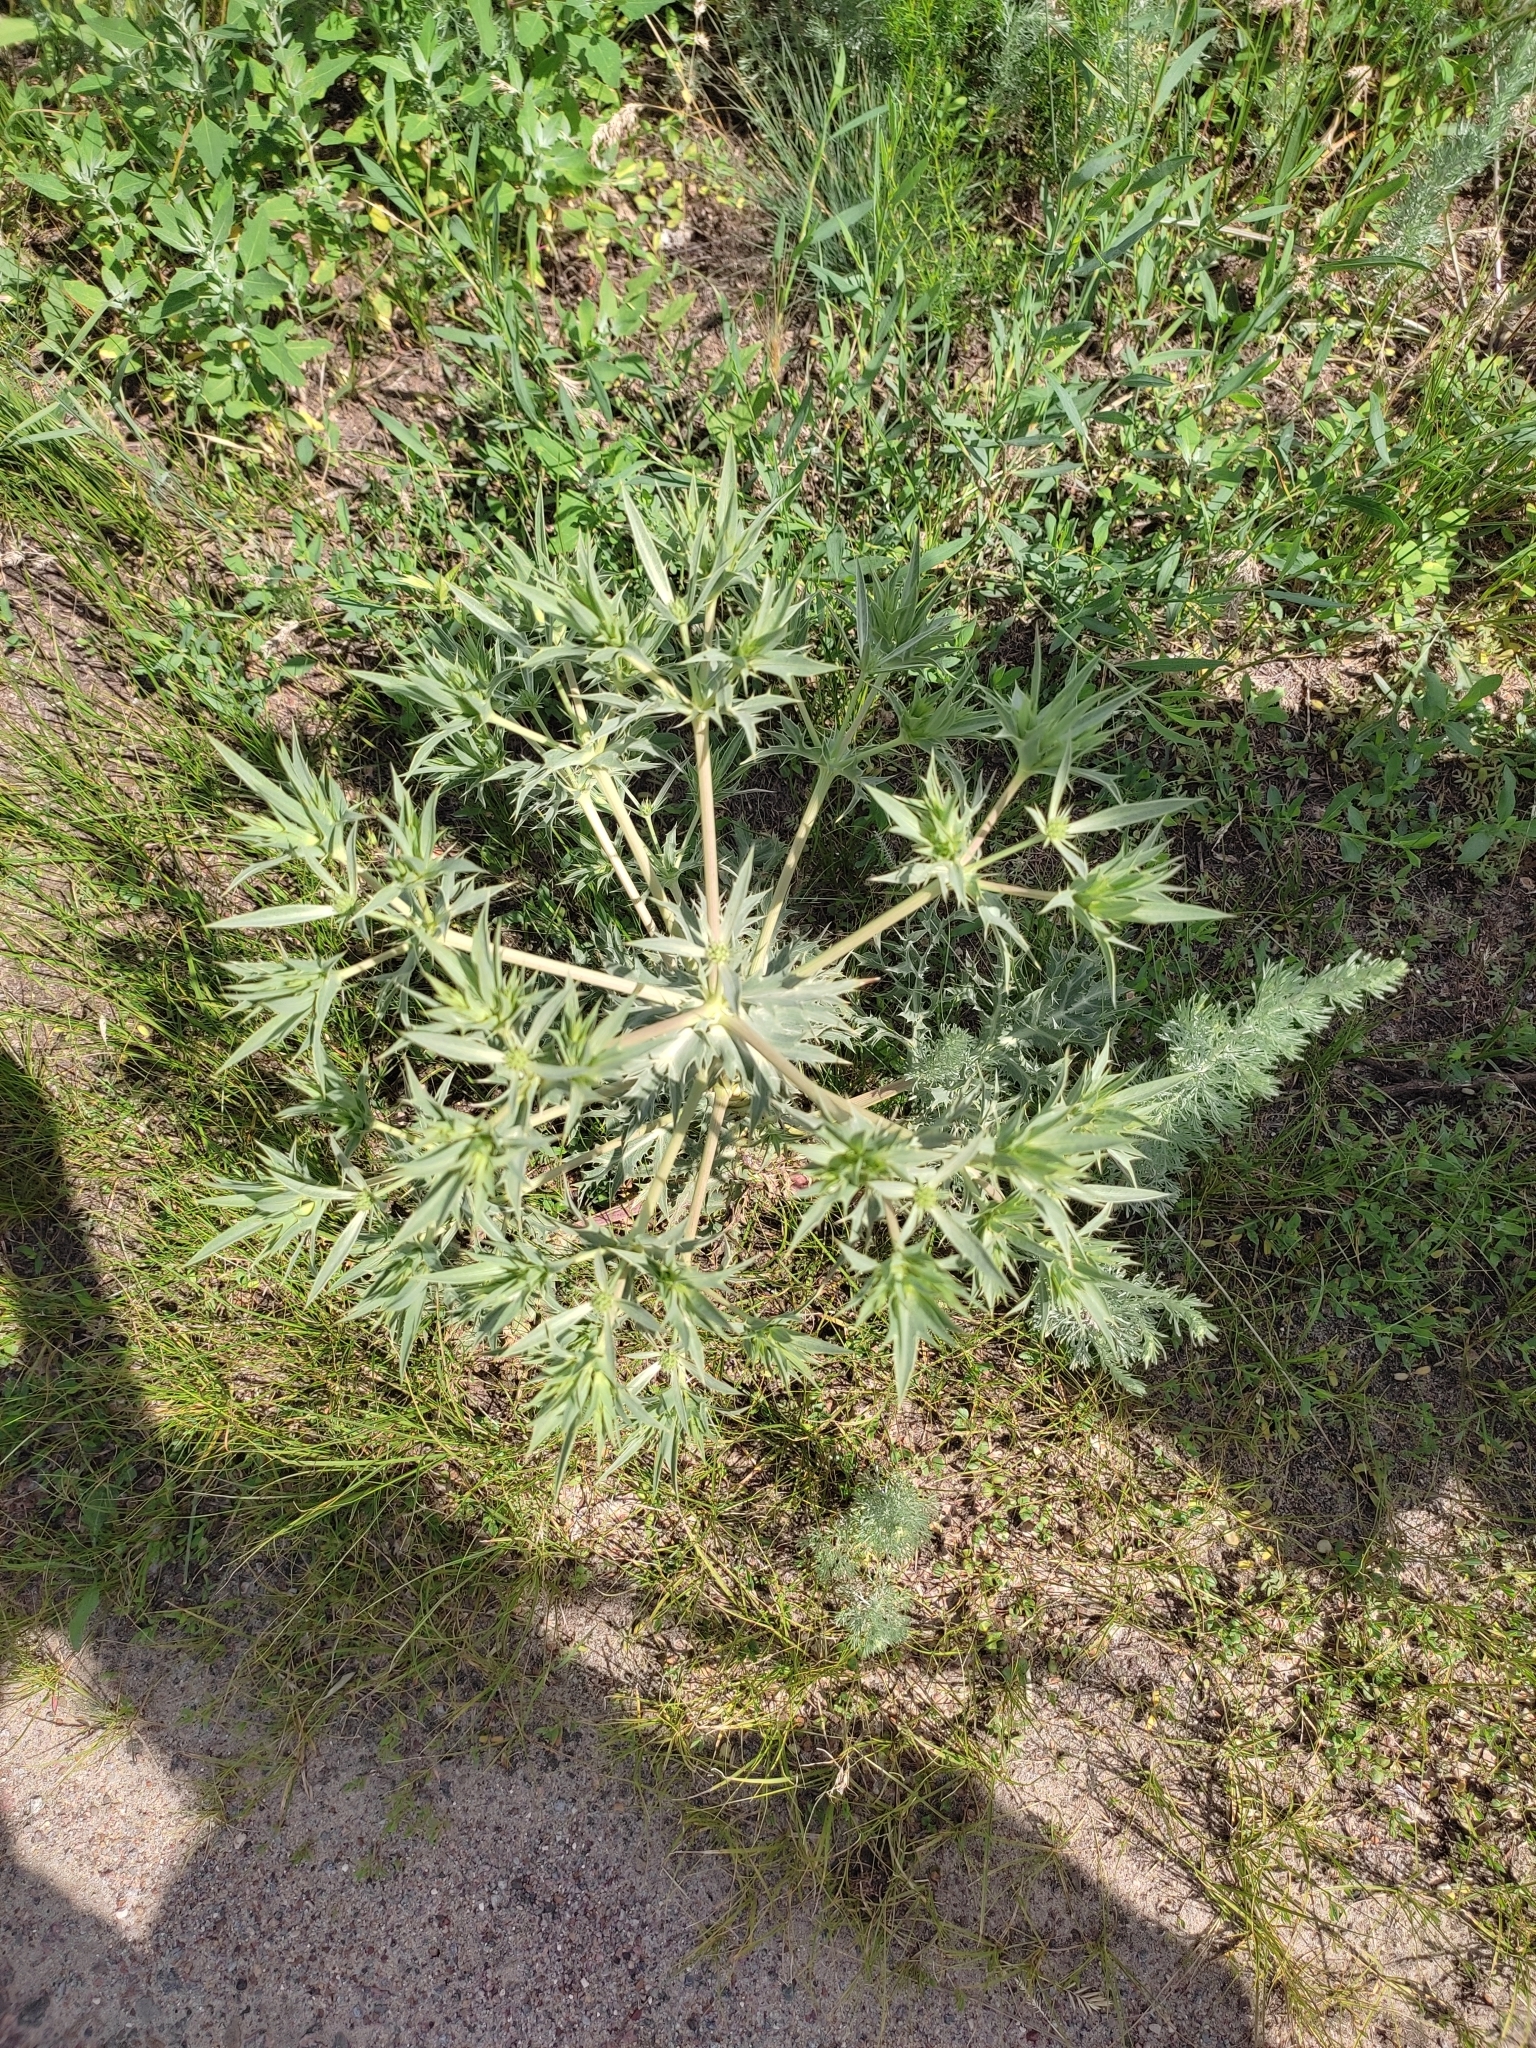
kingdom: Plantae
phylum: Tracheophyta
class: Magnoliopsida
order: Apiales
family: Apiaceae
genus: Eryngium
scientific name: Eryngium campestre
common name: Field eryngo
